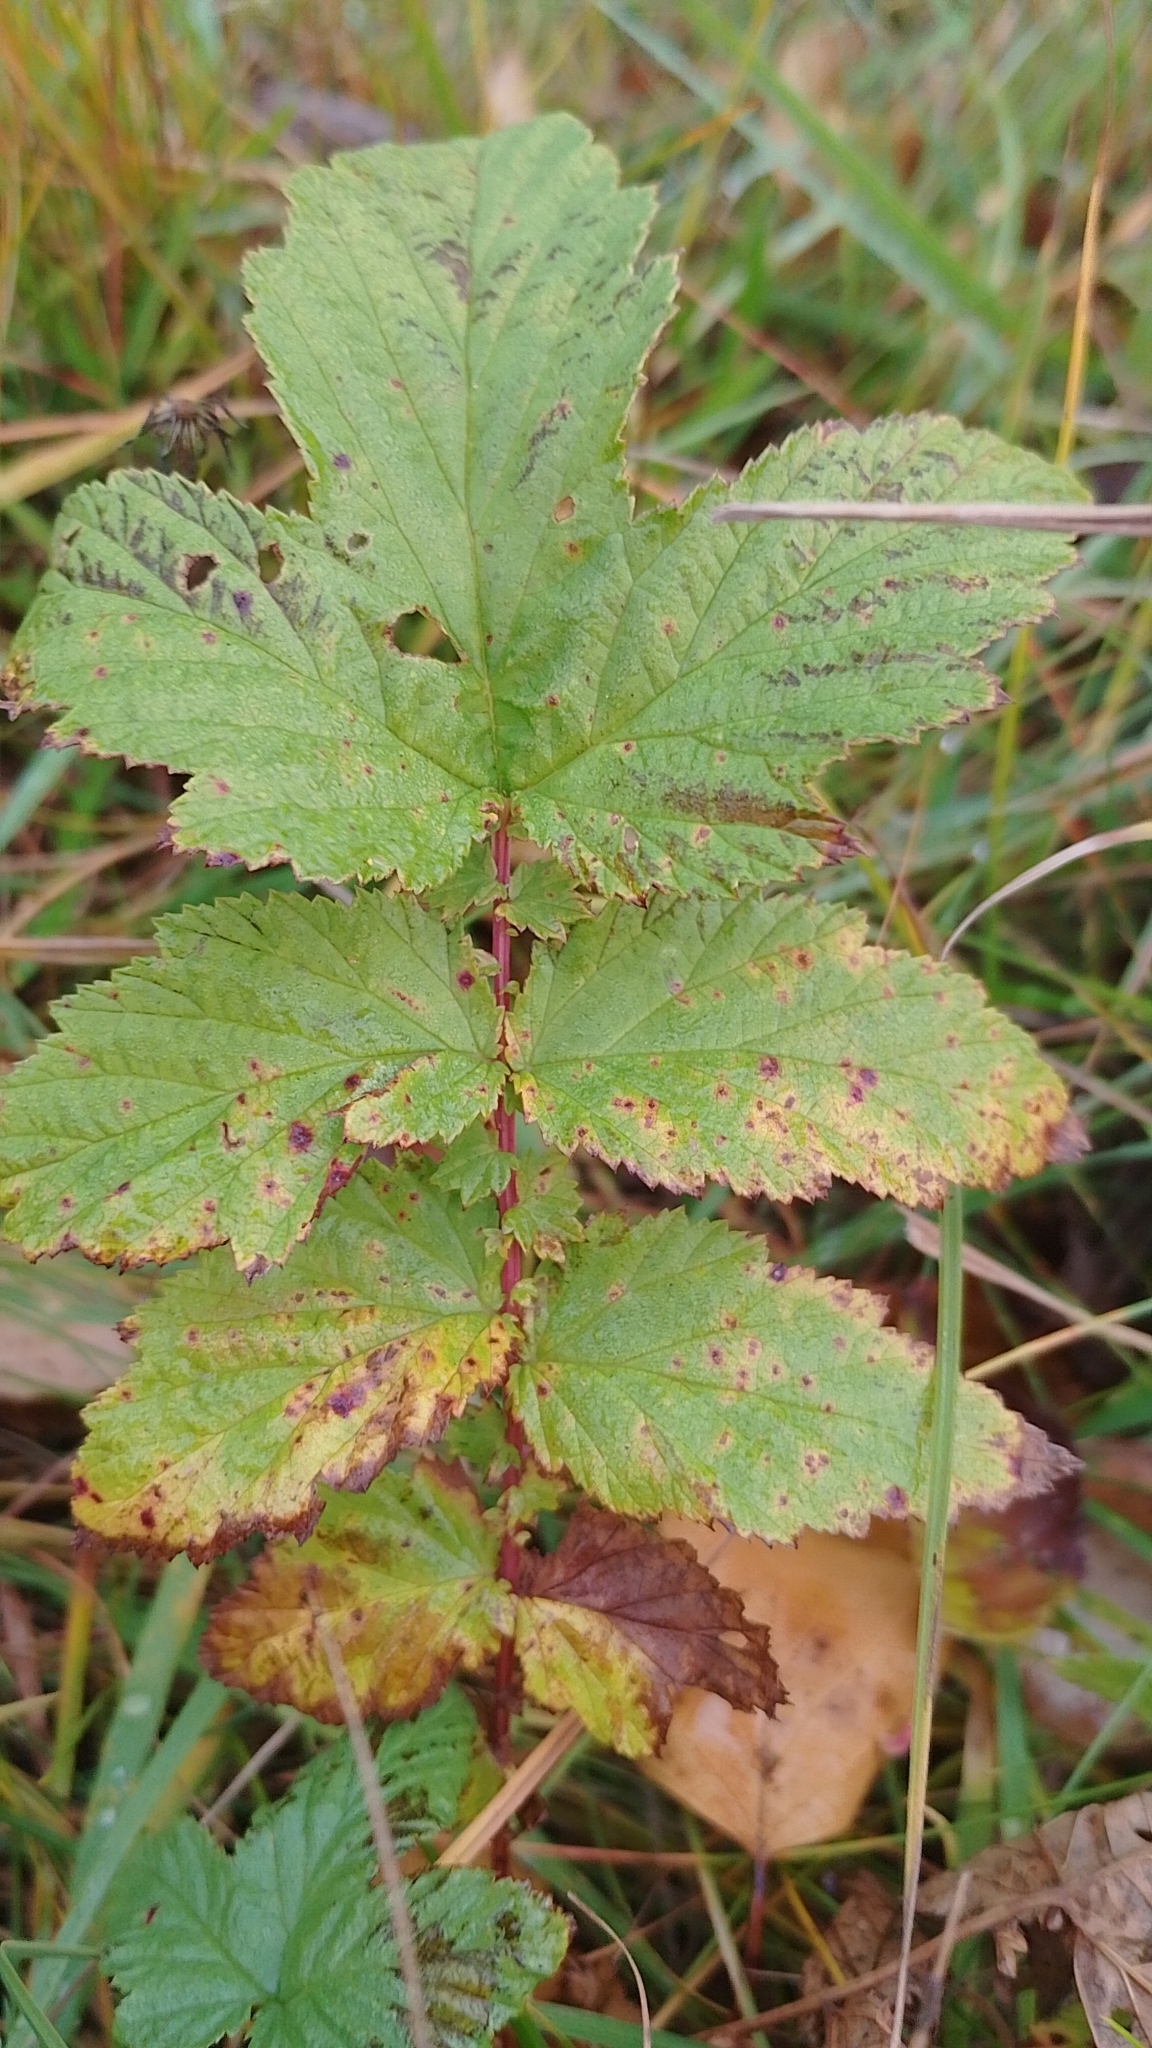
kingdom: Plantae
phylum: Tracheophyta
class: Magnoliopsida
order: Rosales
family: Rosaceae
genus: Filipendula
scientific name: Filipendula ulmaria
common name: Meadowsweet
